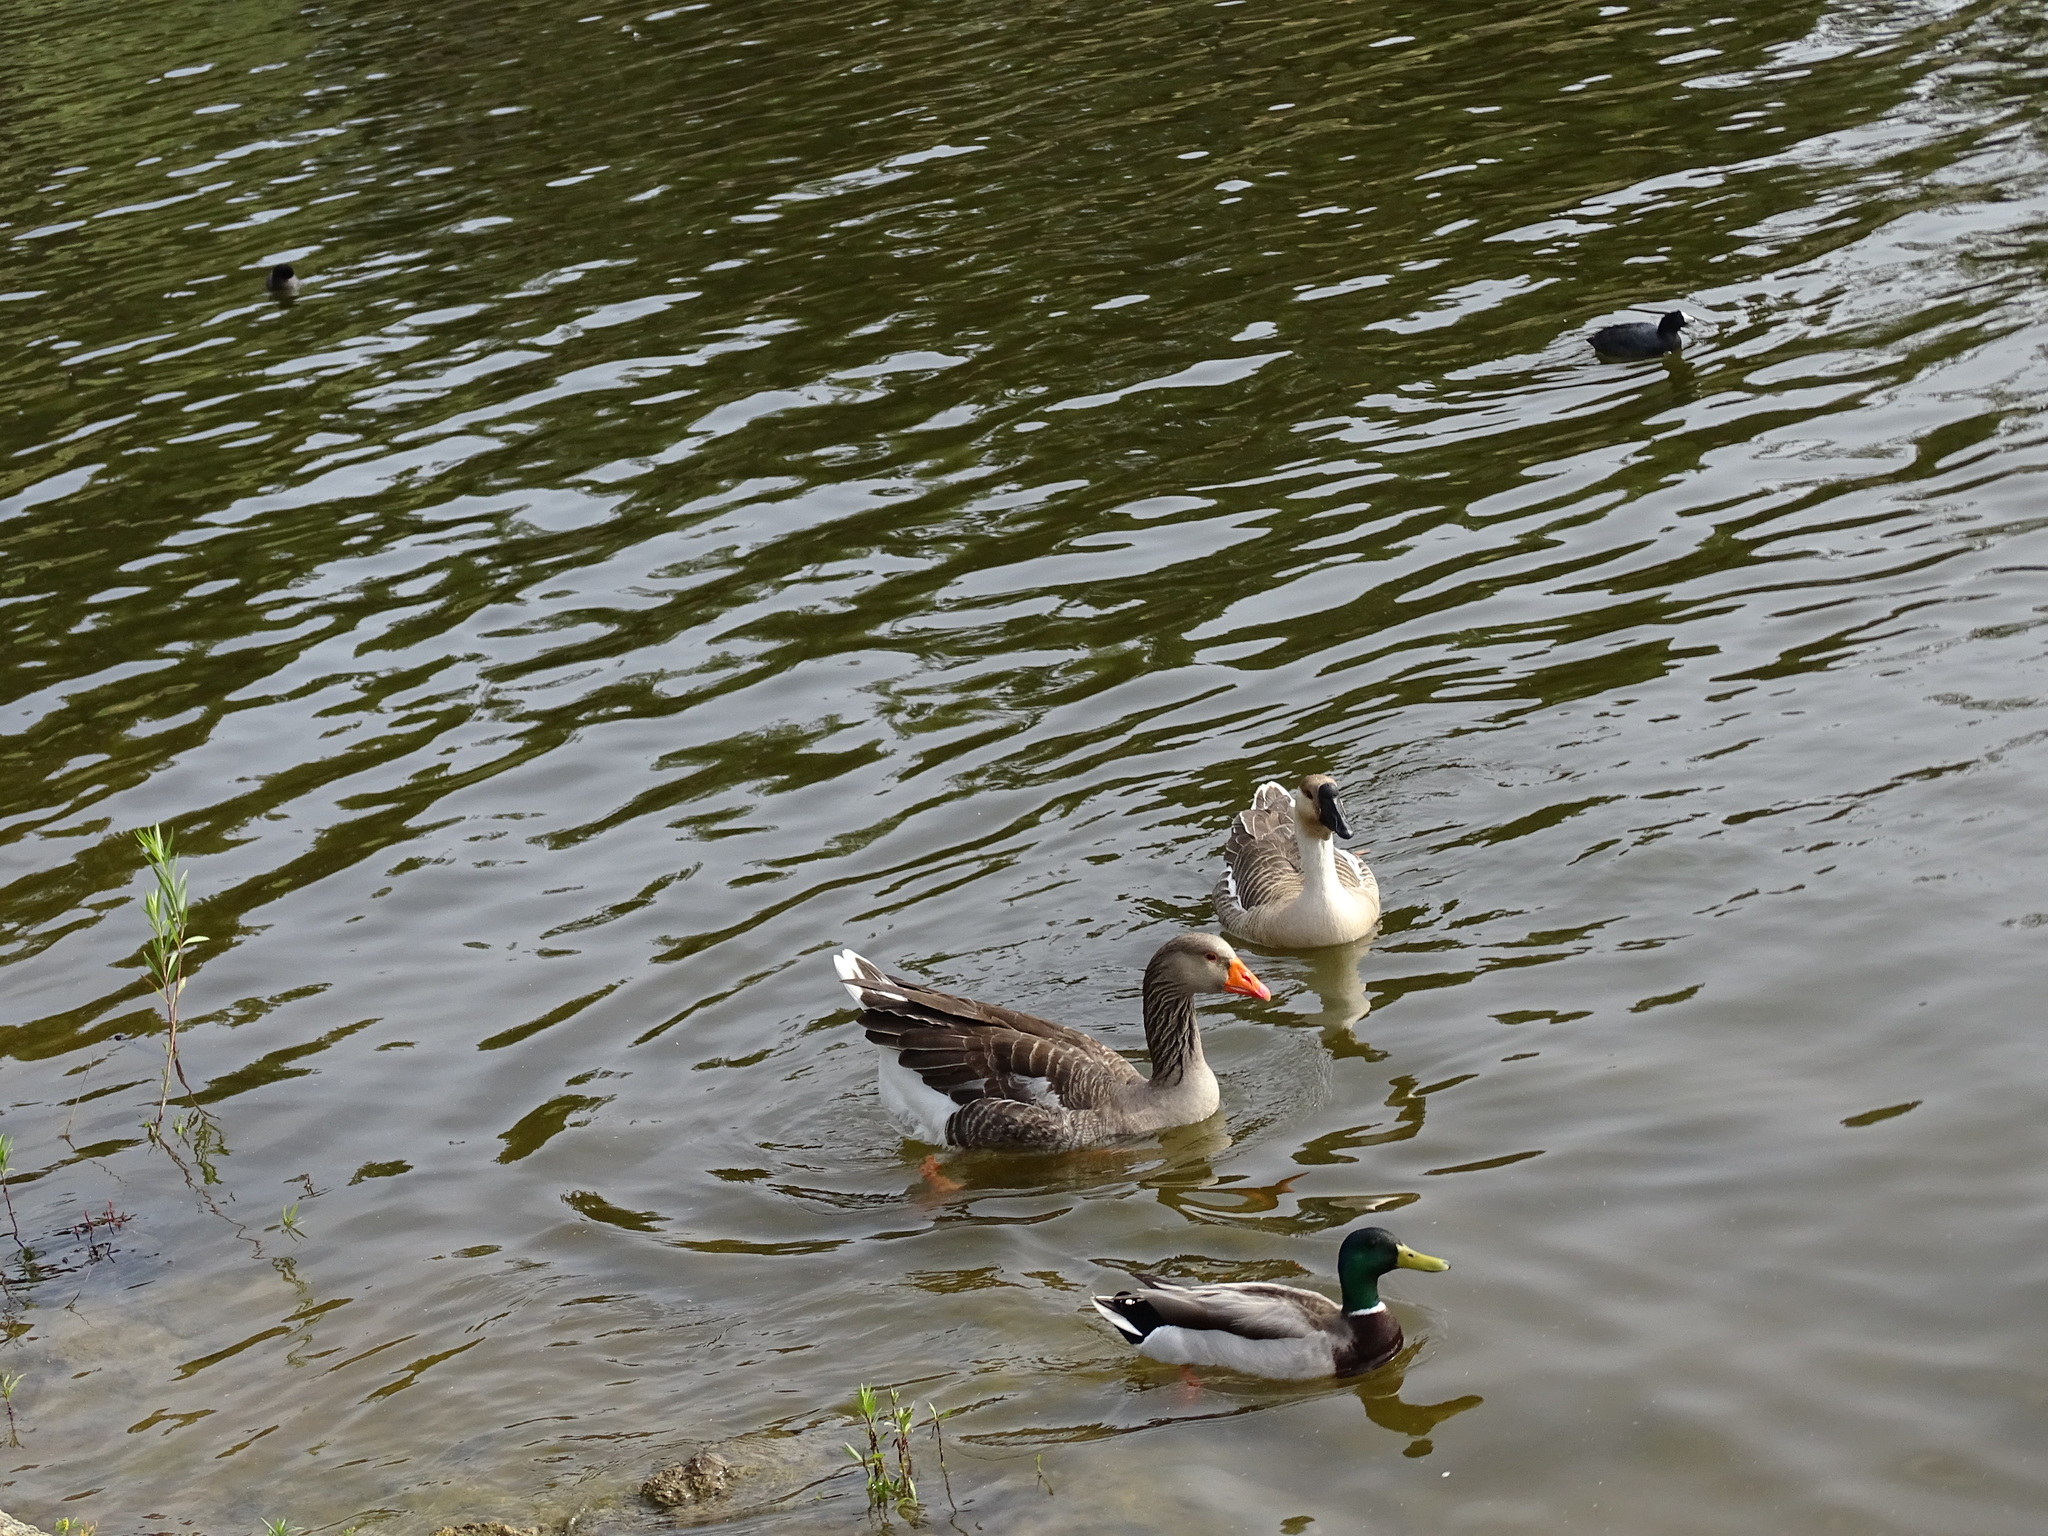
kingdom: Animalia
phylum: Chordata
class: Aves
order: Anseriformes
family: Anatidae
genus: Anser
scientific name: Anser anser
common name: Greylag goose
